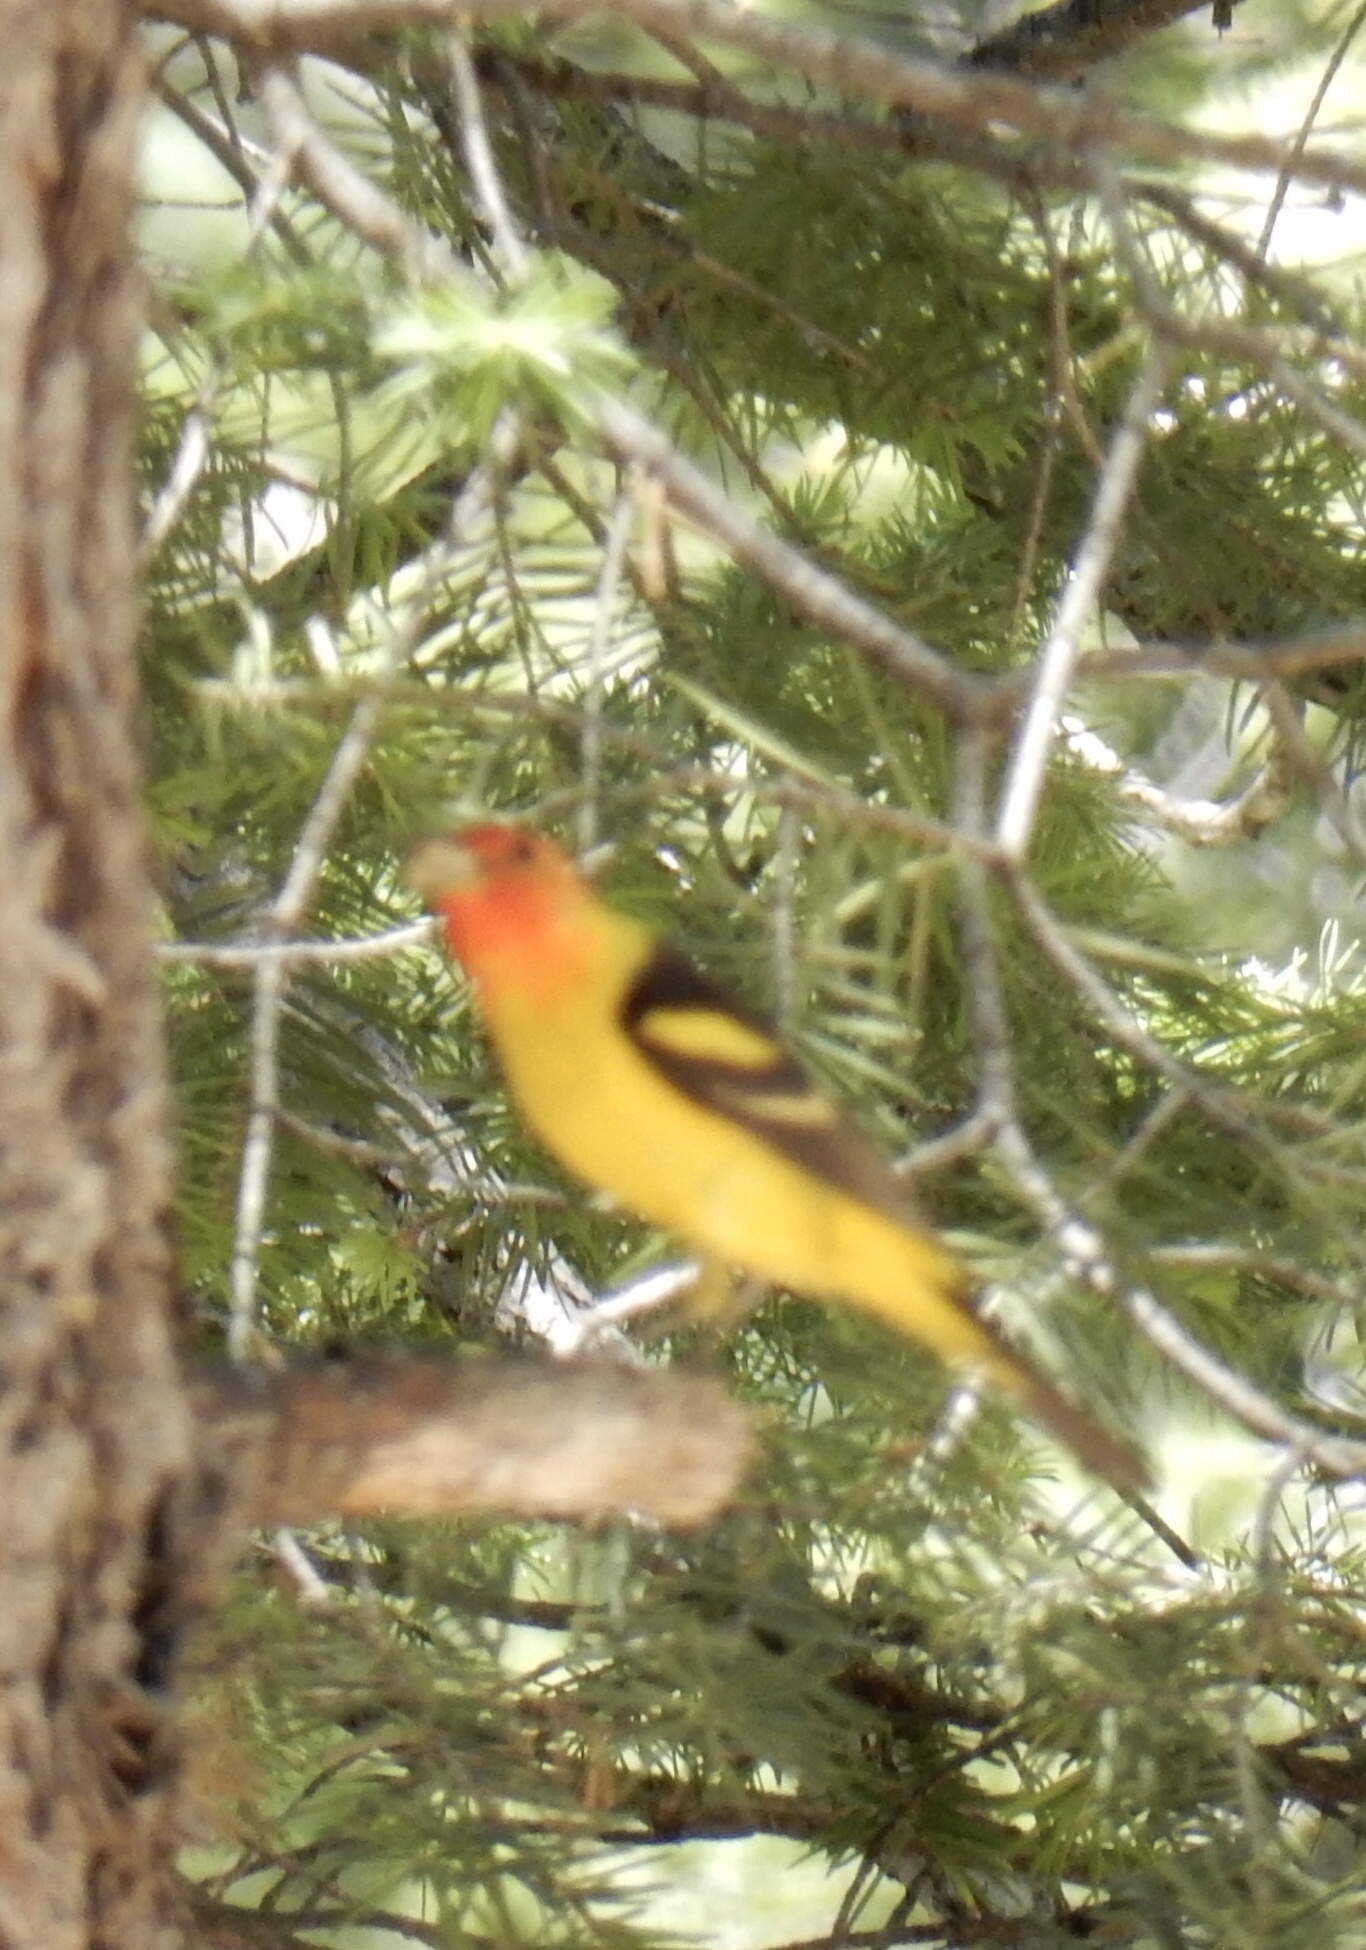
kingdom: Animalia
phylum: Chordata
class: Aves
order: Passeriformes
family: Cardinalidae
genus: Piranga
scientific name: Piranga ludoviciana
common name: Western tanager
